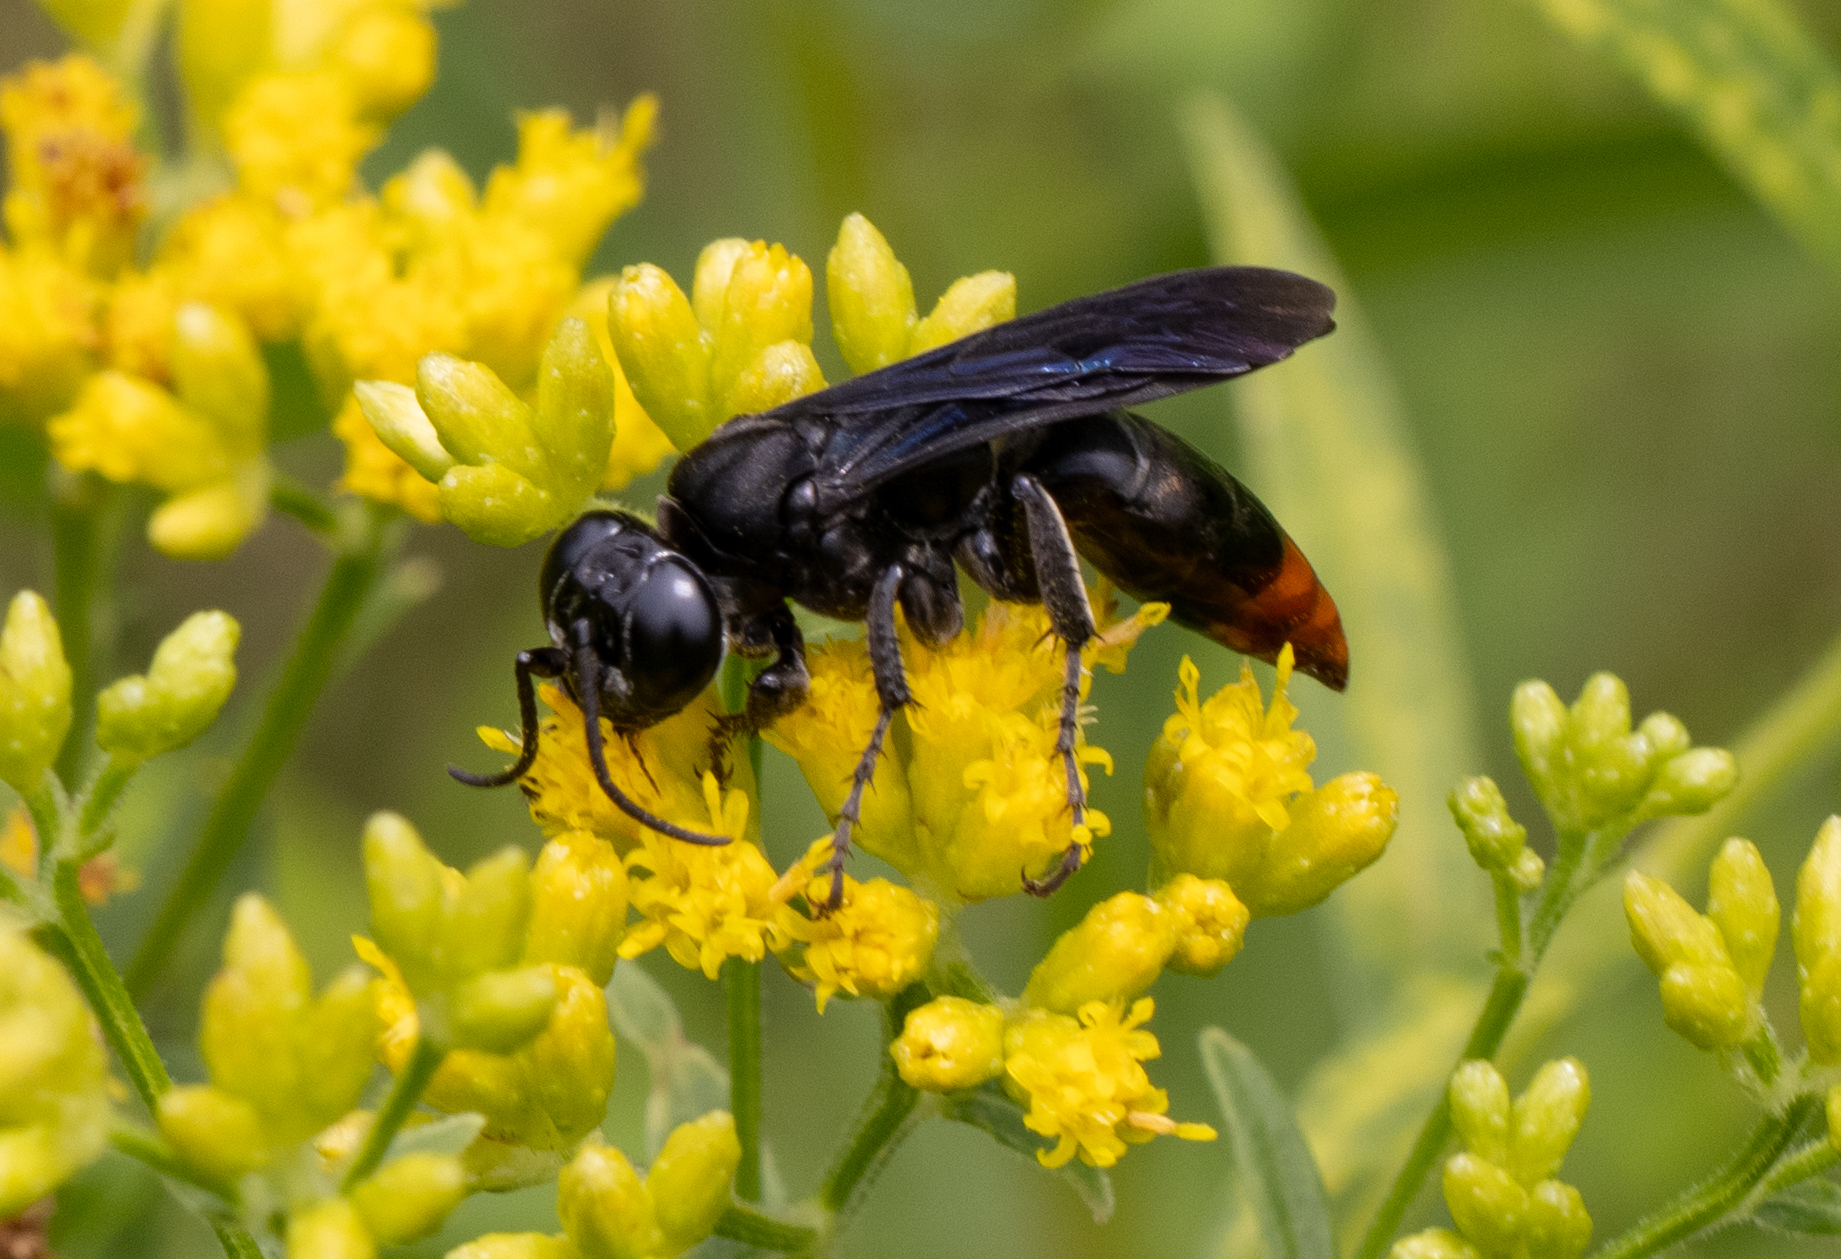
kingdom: Animalia
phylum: Arthropoda
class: Insecta
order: Hymenoptera
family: Crabronidae
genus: Larra
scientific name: Larra analis
